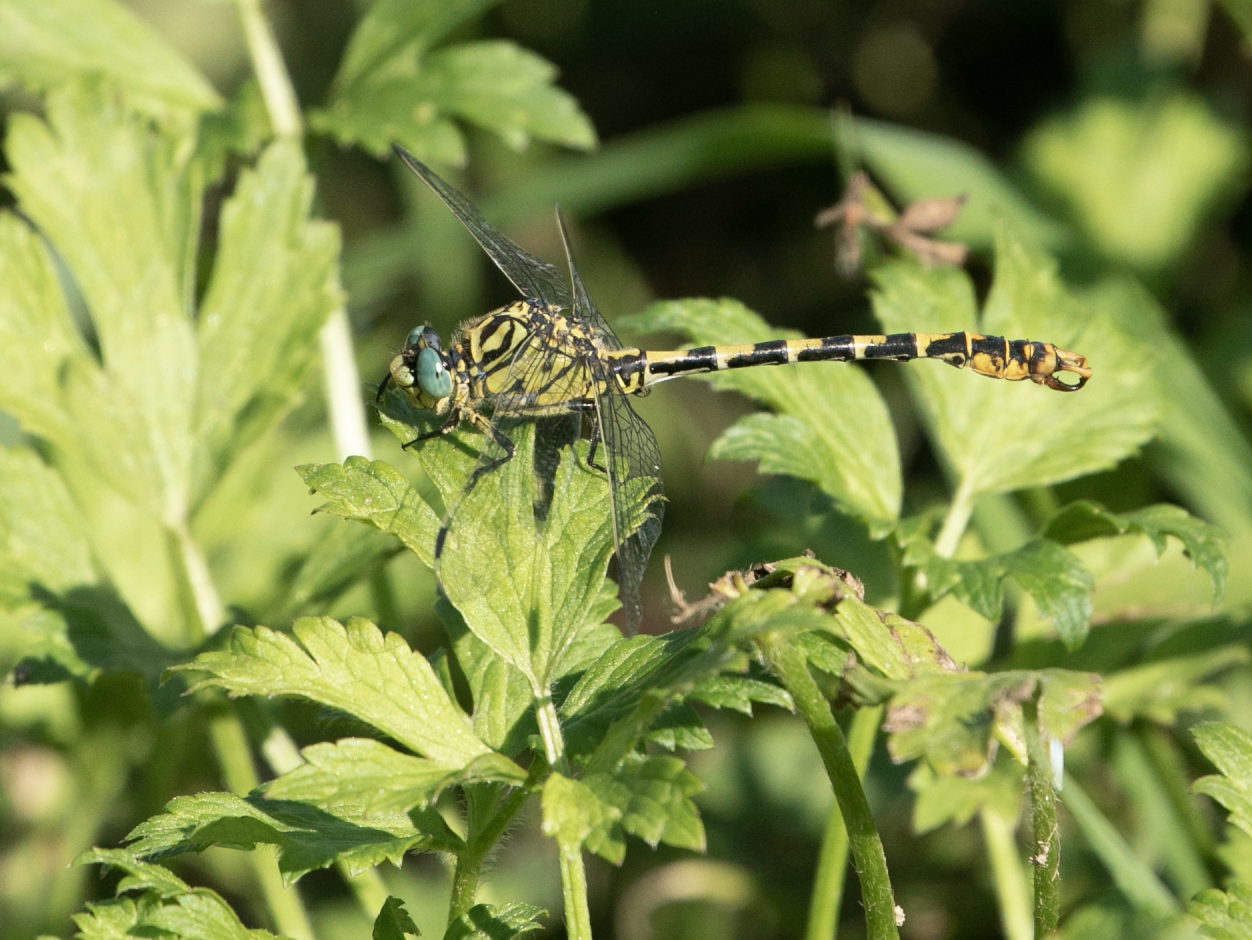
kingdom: Animalia
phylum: Arthropoda
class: Insecta
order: Odonata
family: Gomphidae
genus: Onychogomphus
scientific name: Onychogomphus forcipatus
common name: Small pincertail
